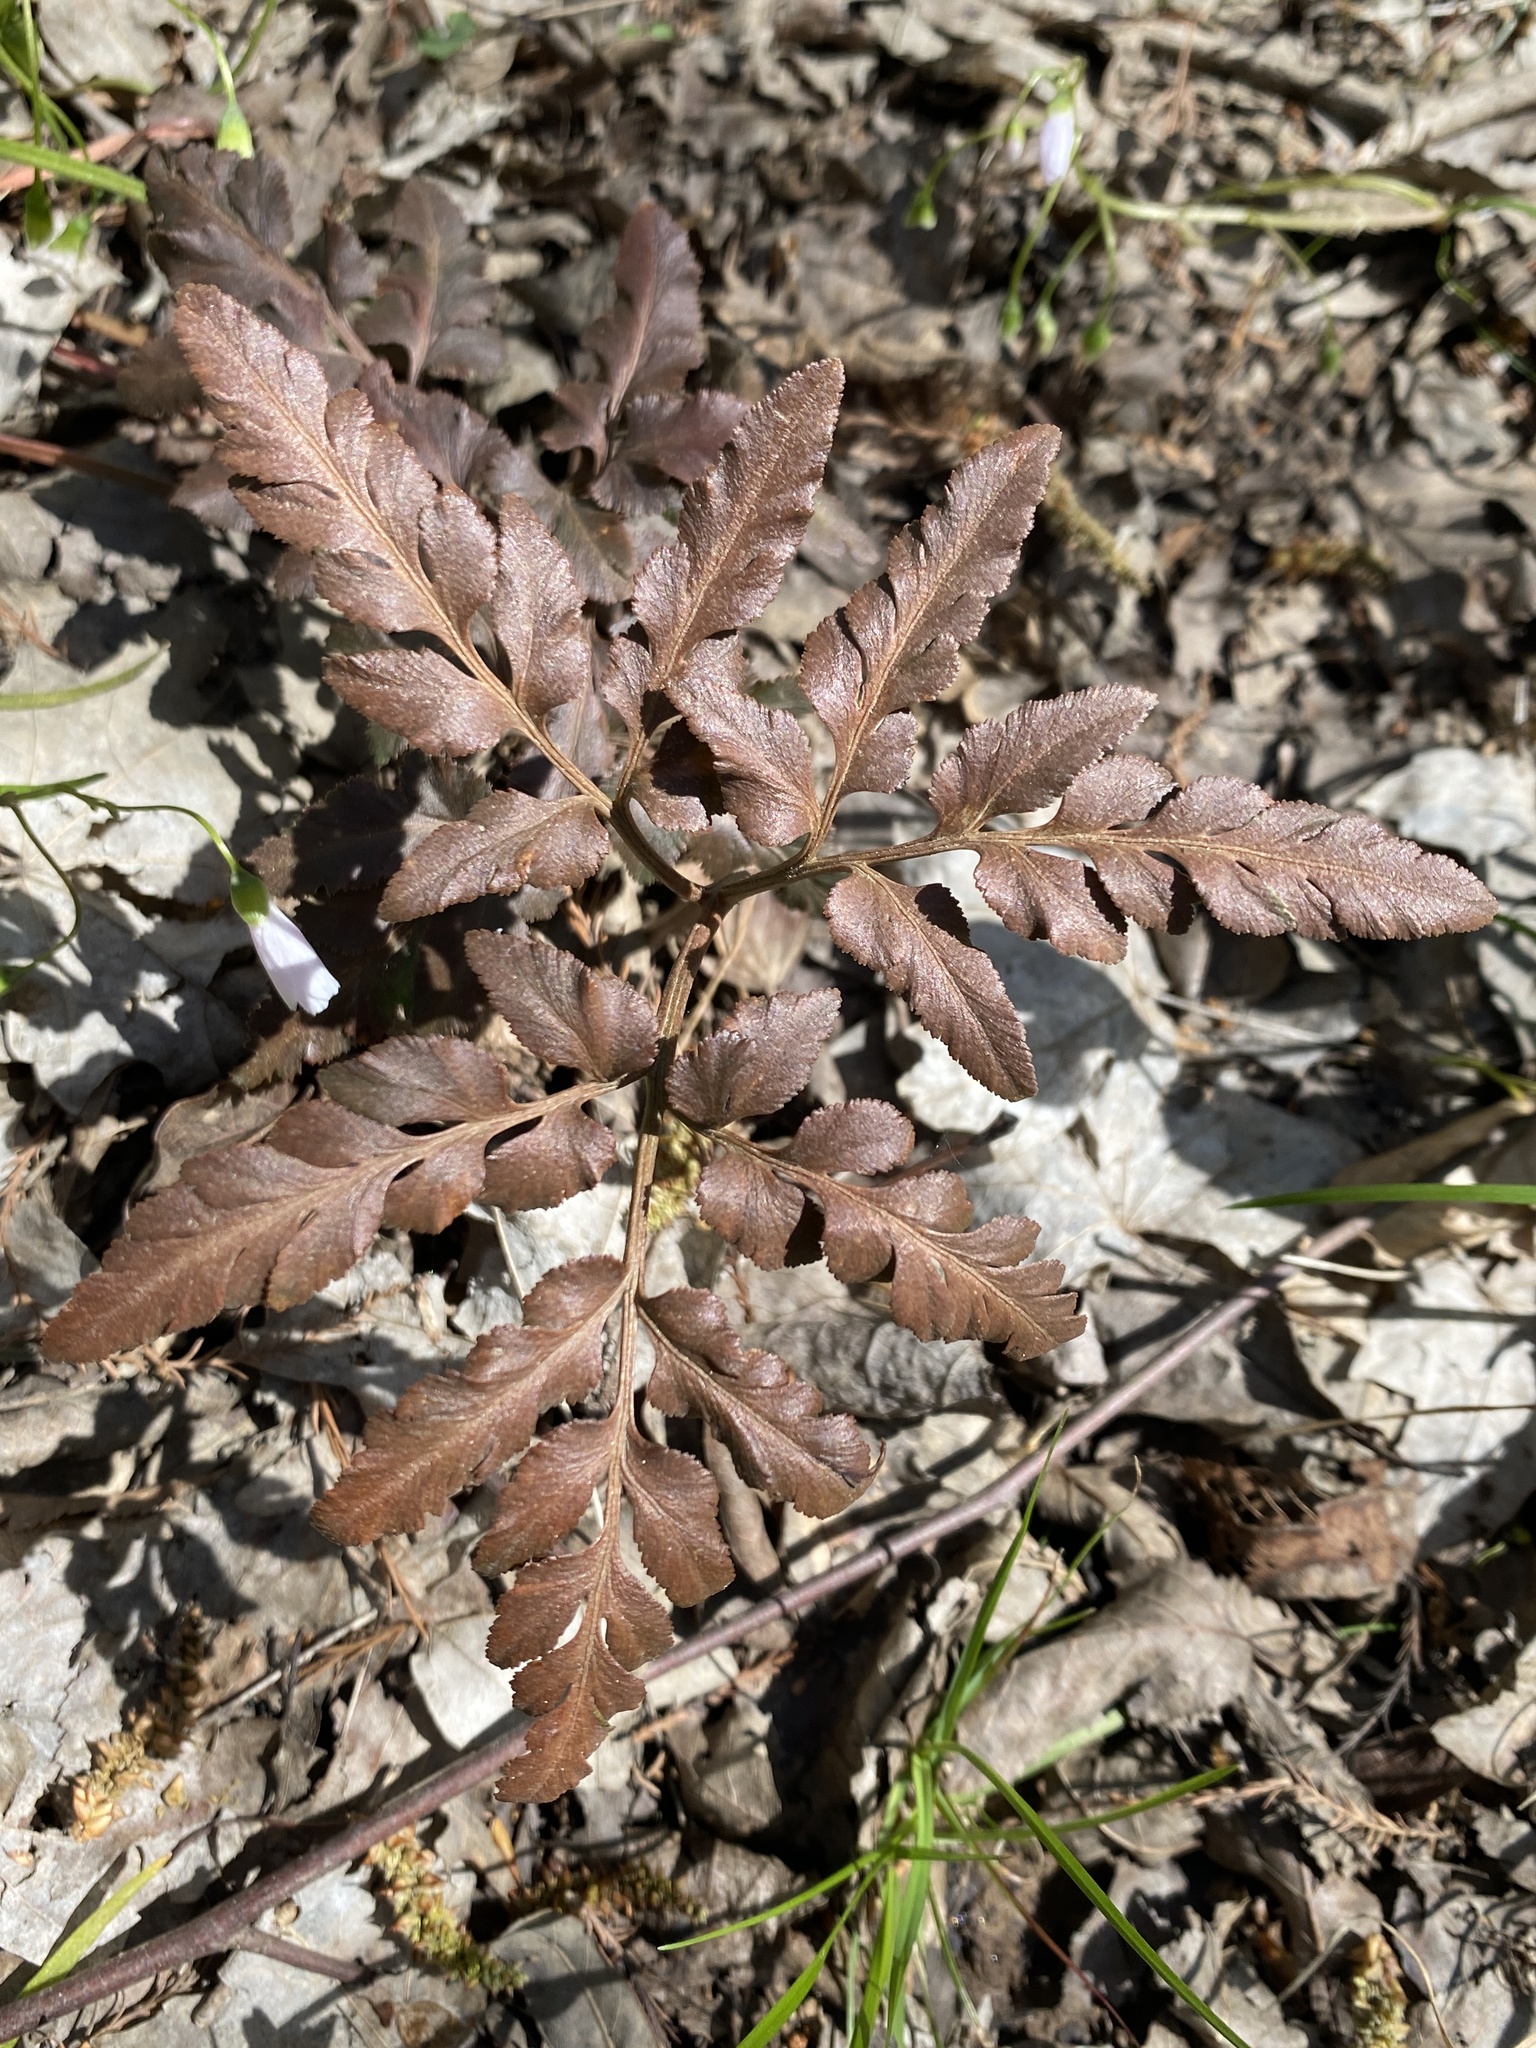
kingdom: Plantae
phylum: Tracheophyta
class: Polypodiopsida
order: Ophioglossales
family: Ophioglossaceae
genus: Sceptridium
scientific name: Sceptridium dissectum
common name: Cut-leaved grapefern
